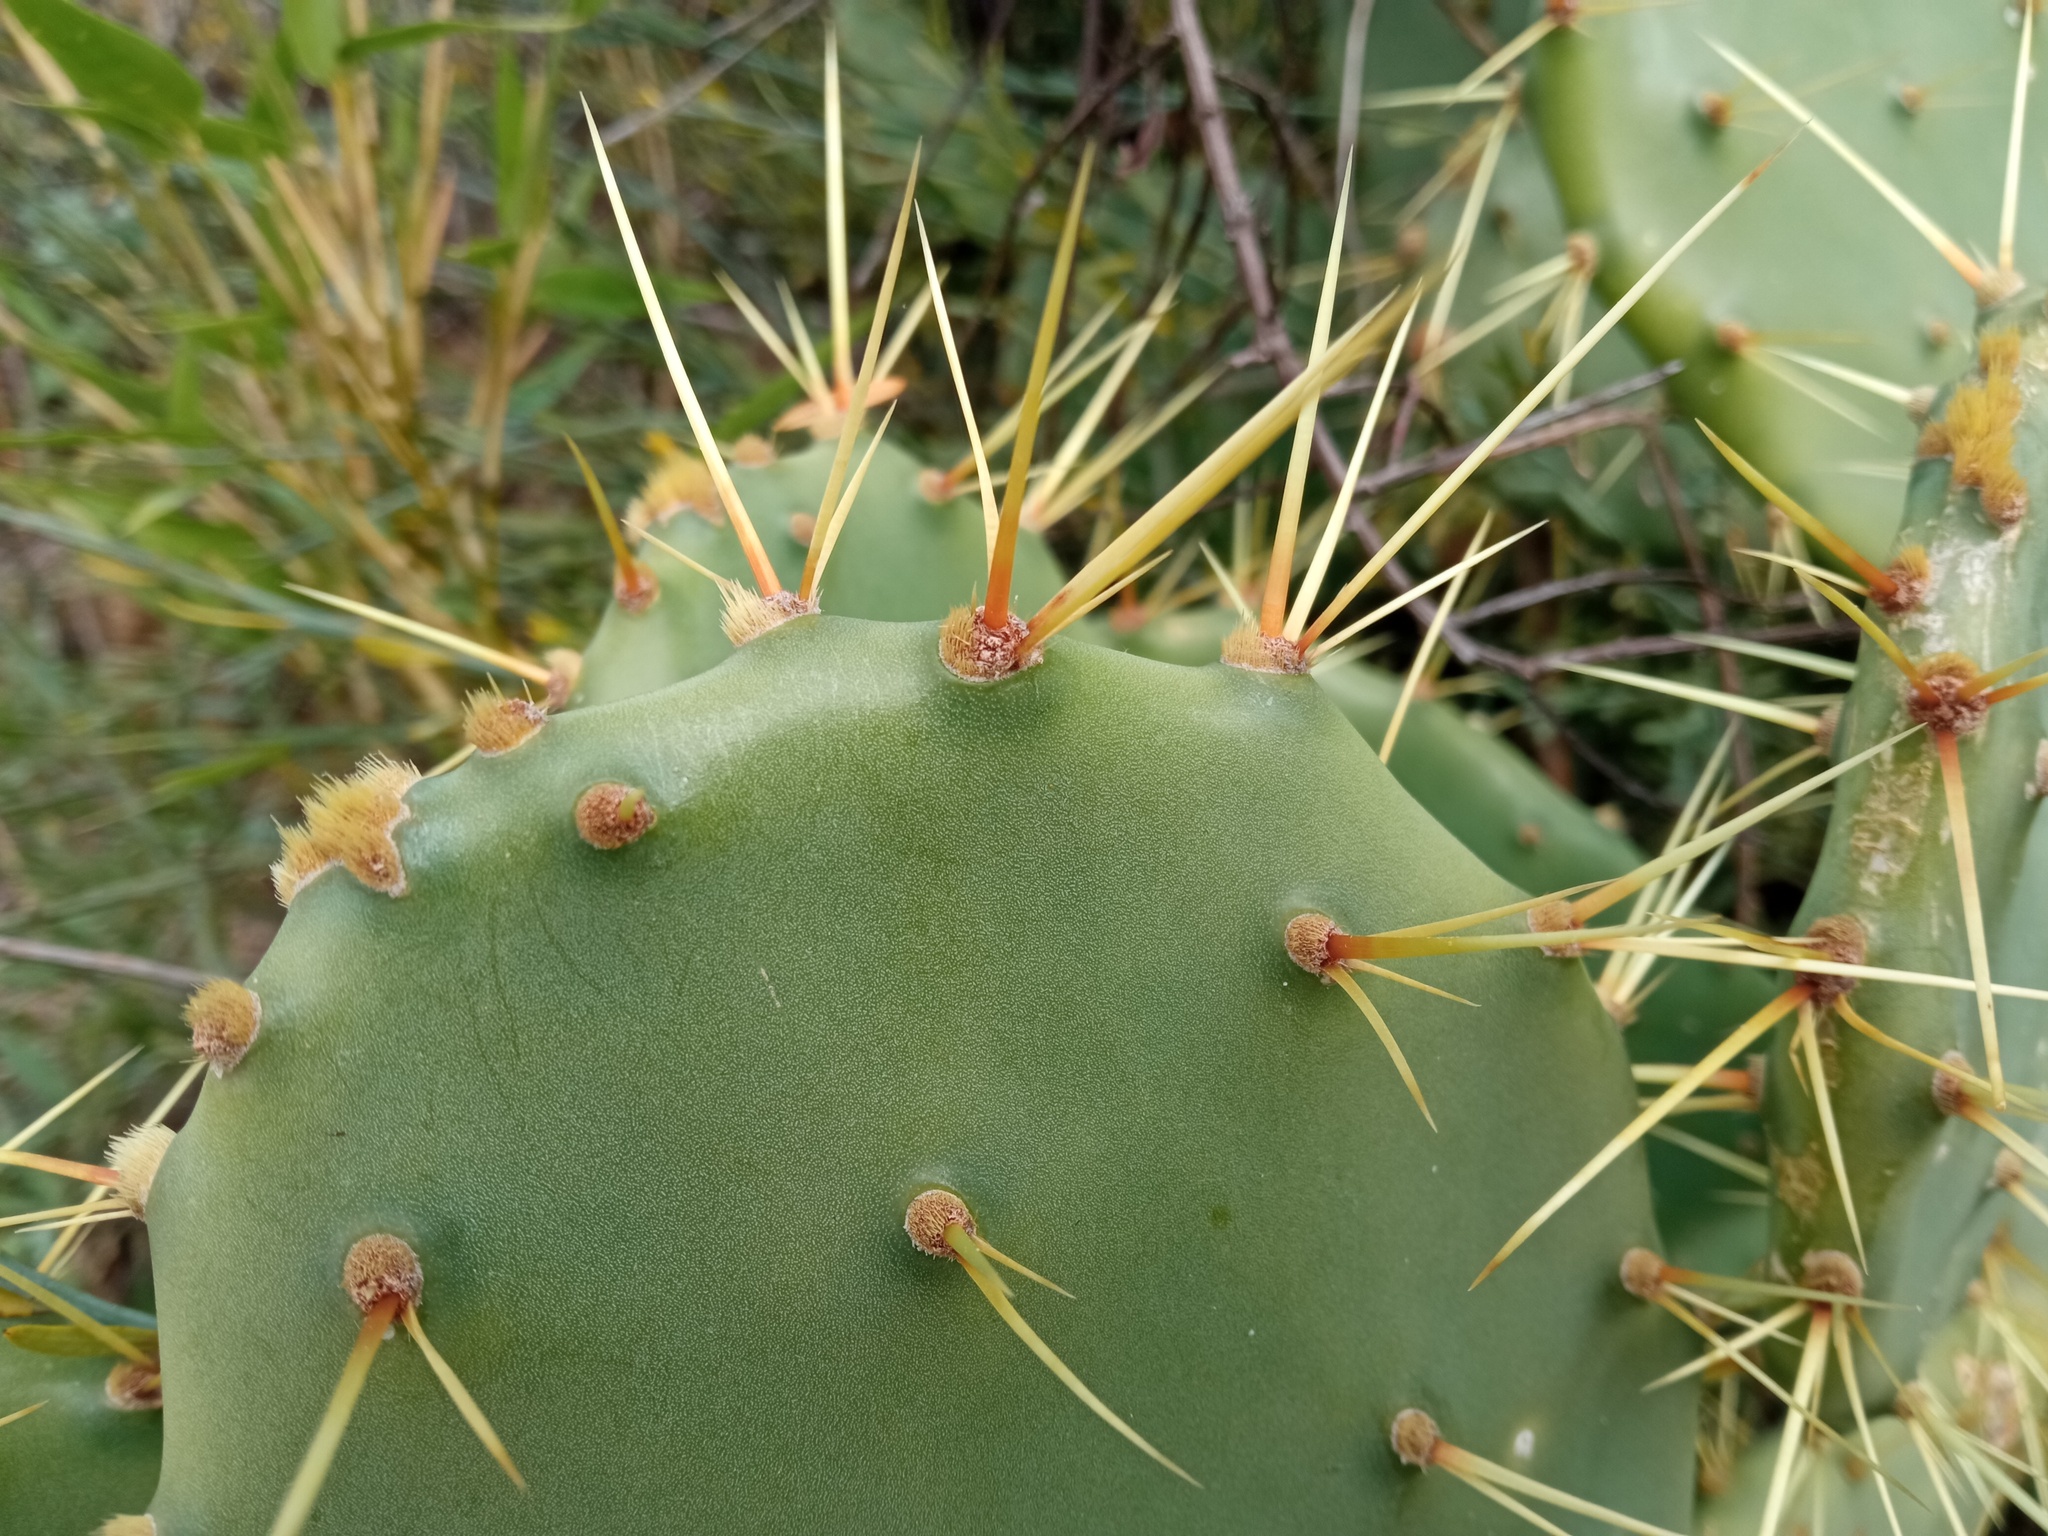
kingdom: Plantae
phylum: Tracheophyta
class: Magnoliopsida
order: Caryophyllales
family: Cactaceae
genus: Opuntia
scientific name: Opuntia elatior
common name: Tuna
